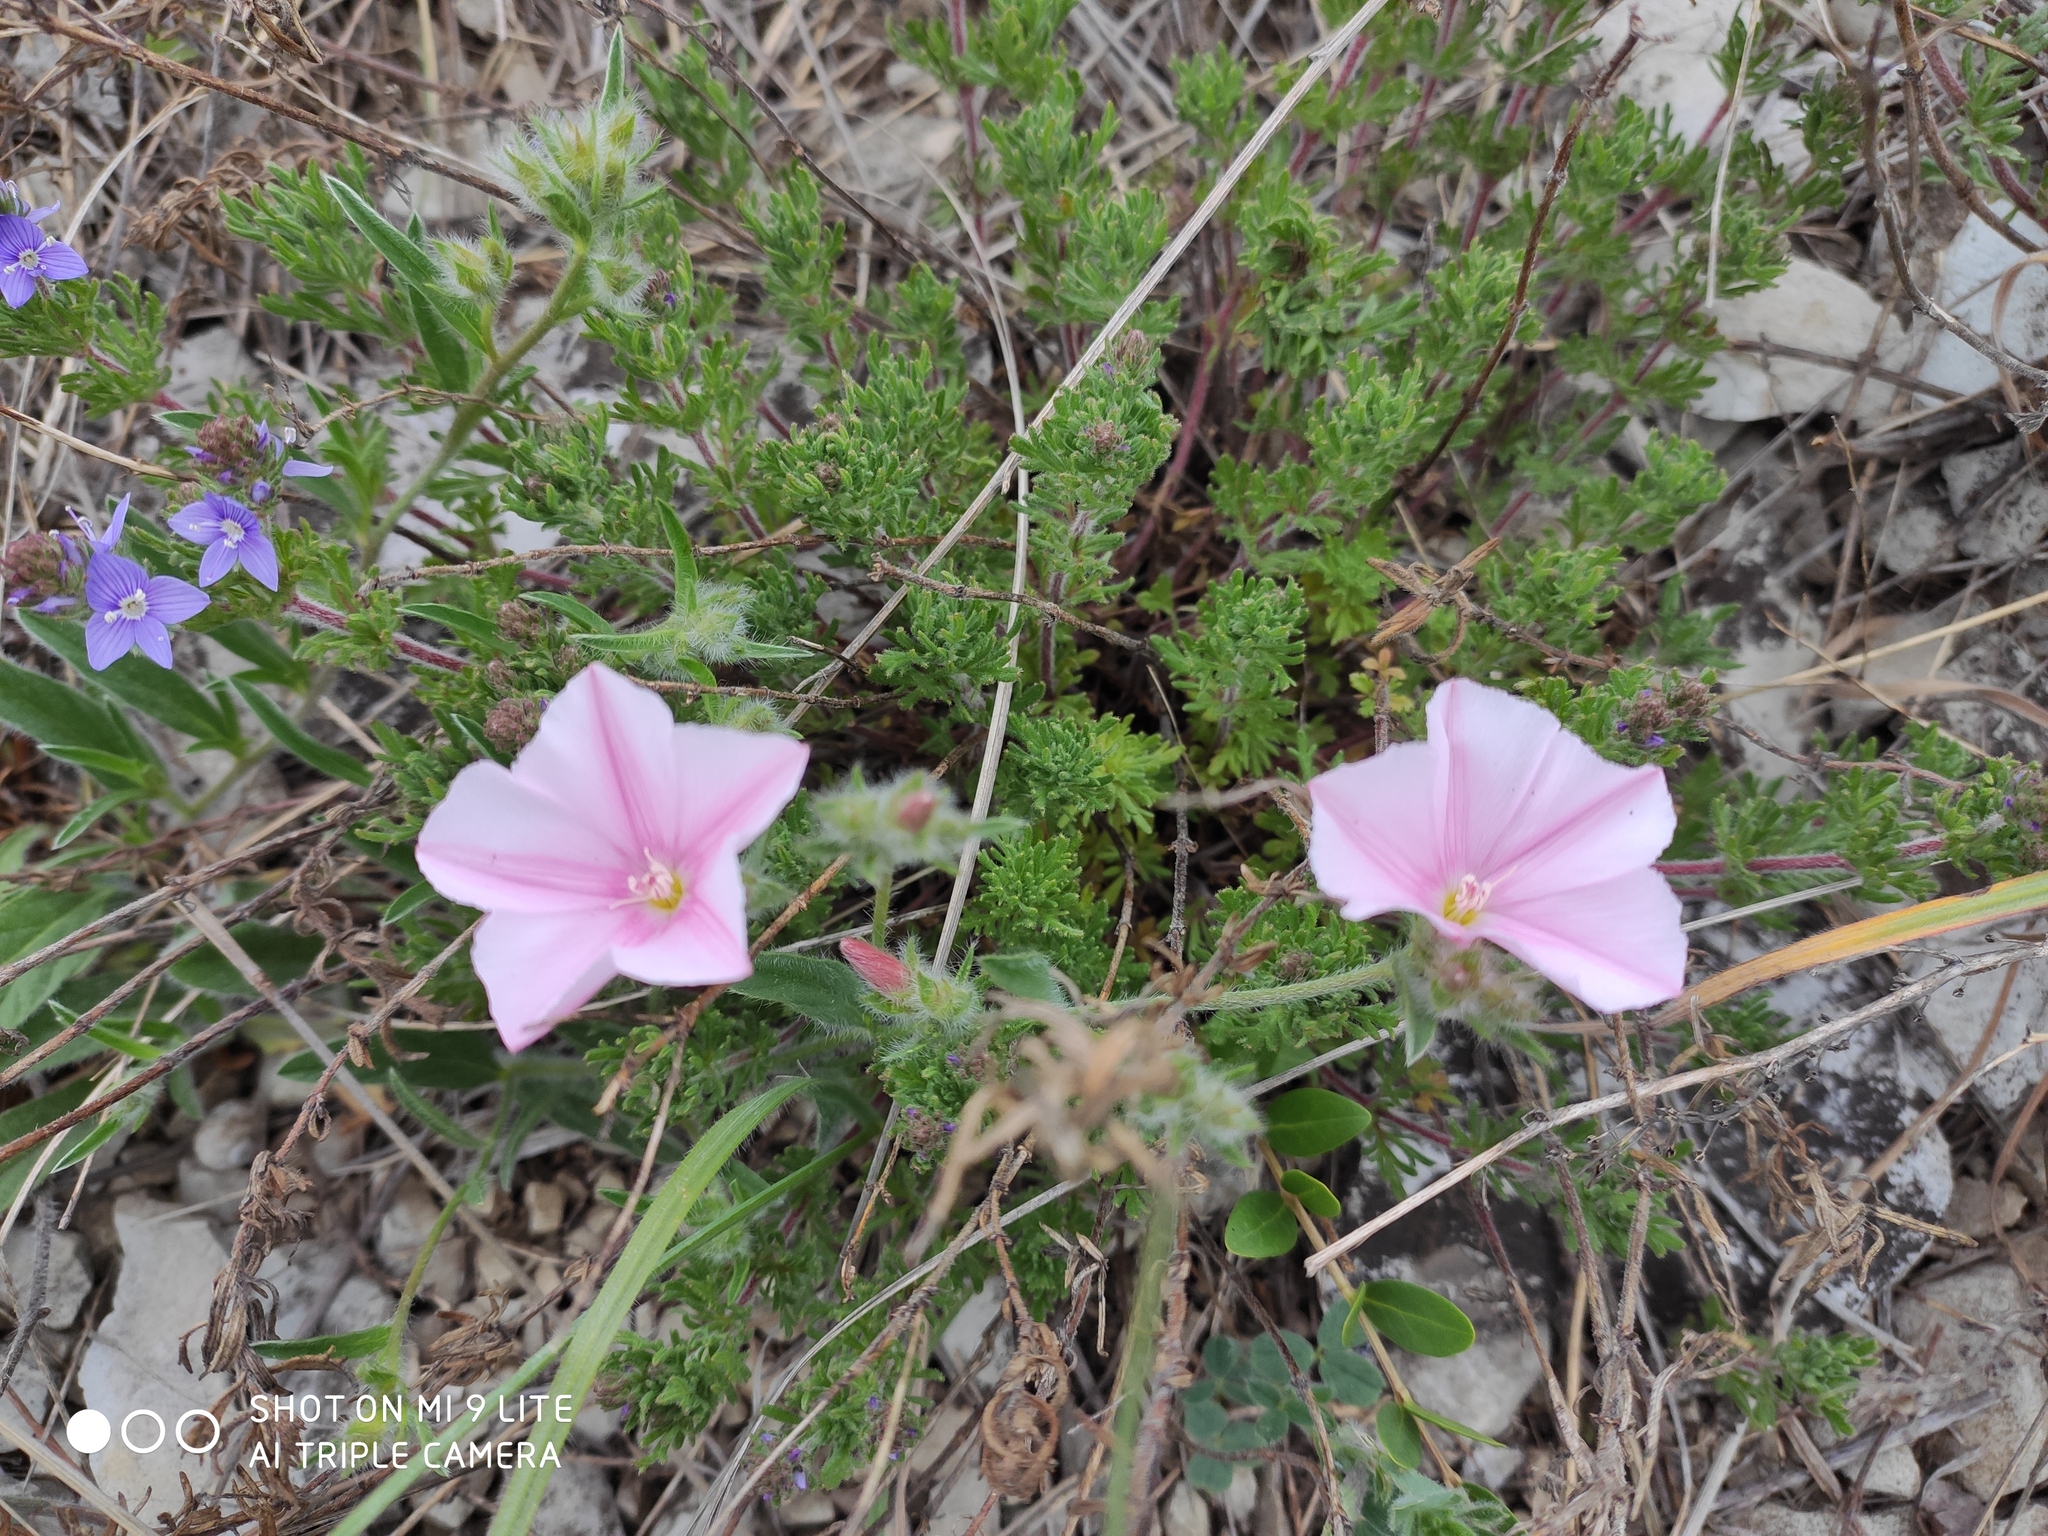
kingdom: Plantae
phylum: Tracheophyta
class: Magnoliopsida
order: Solanales
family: Convolvulaceae
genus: Convolvulus
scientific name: Convolvulus cantabrica
